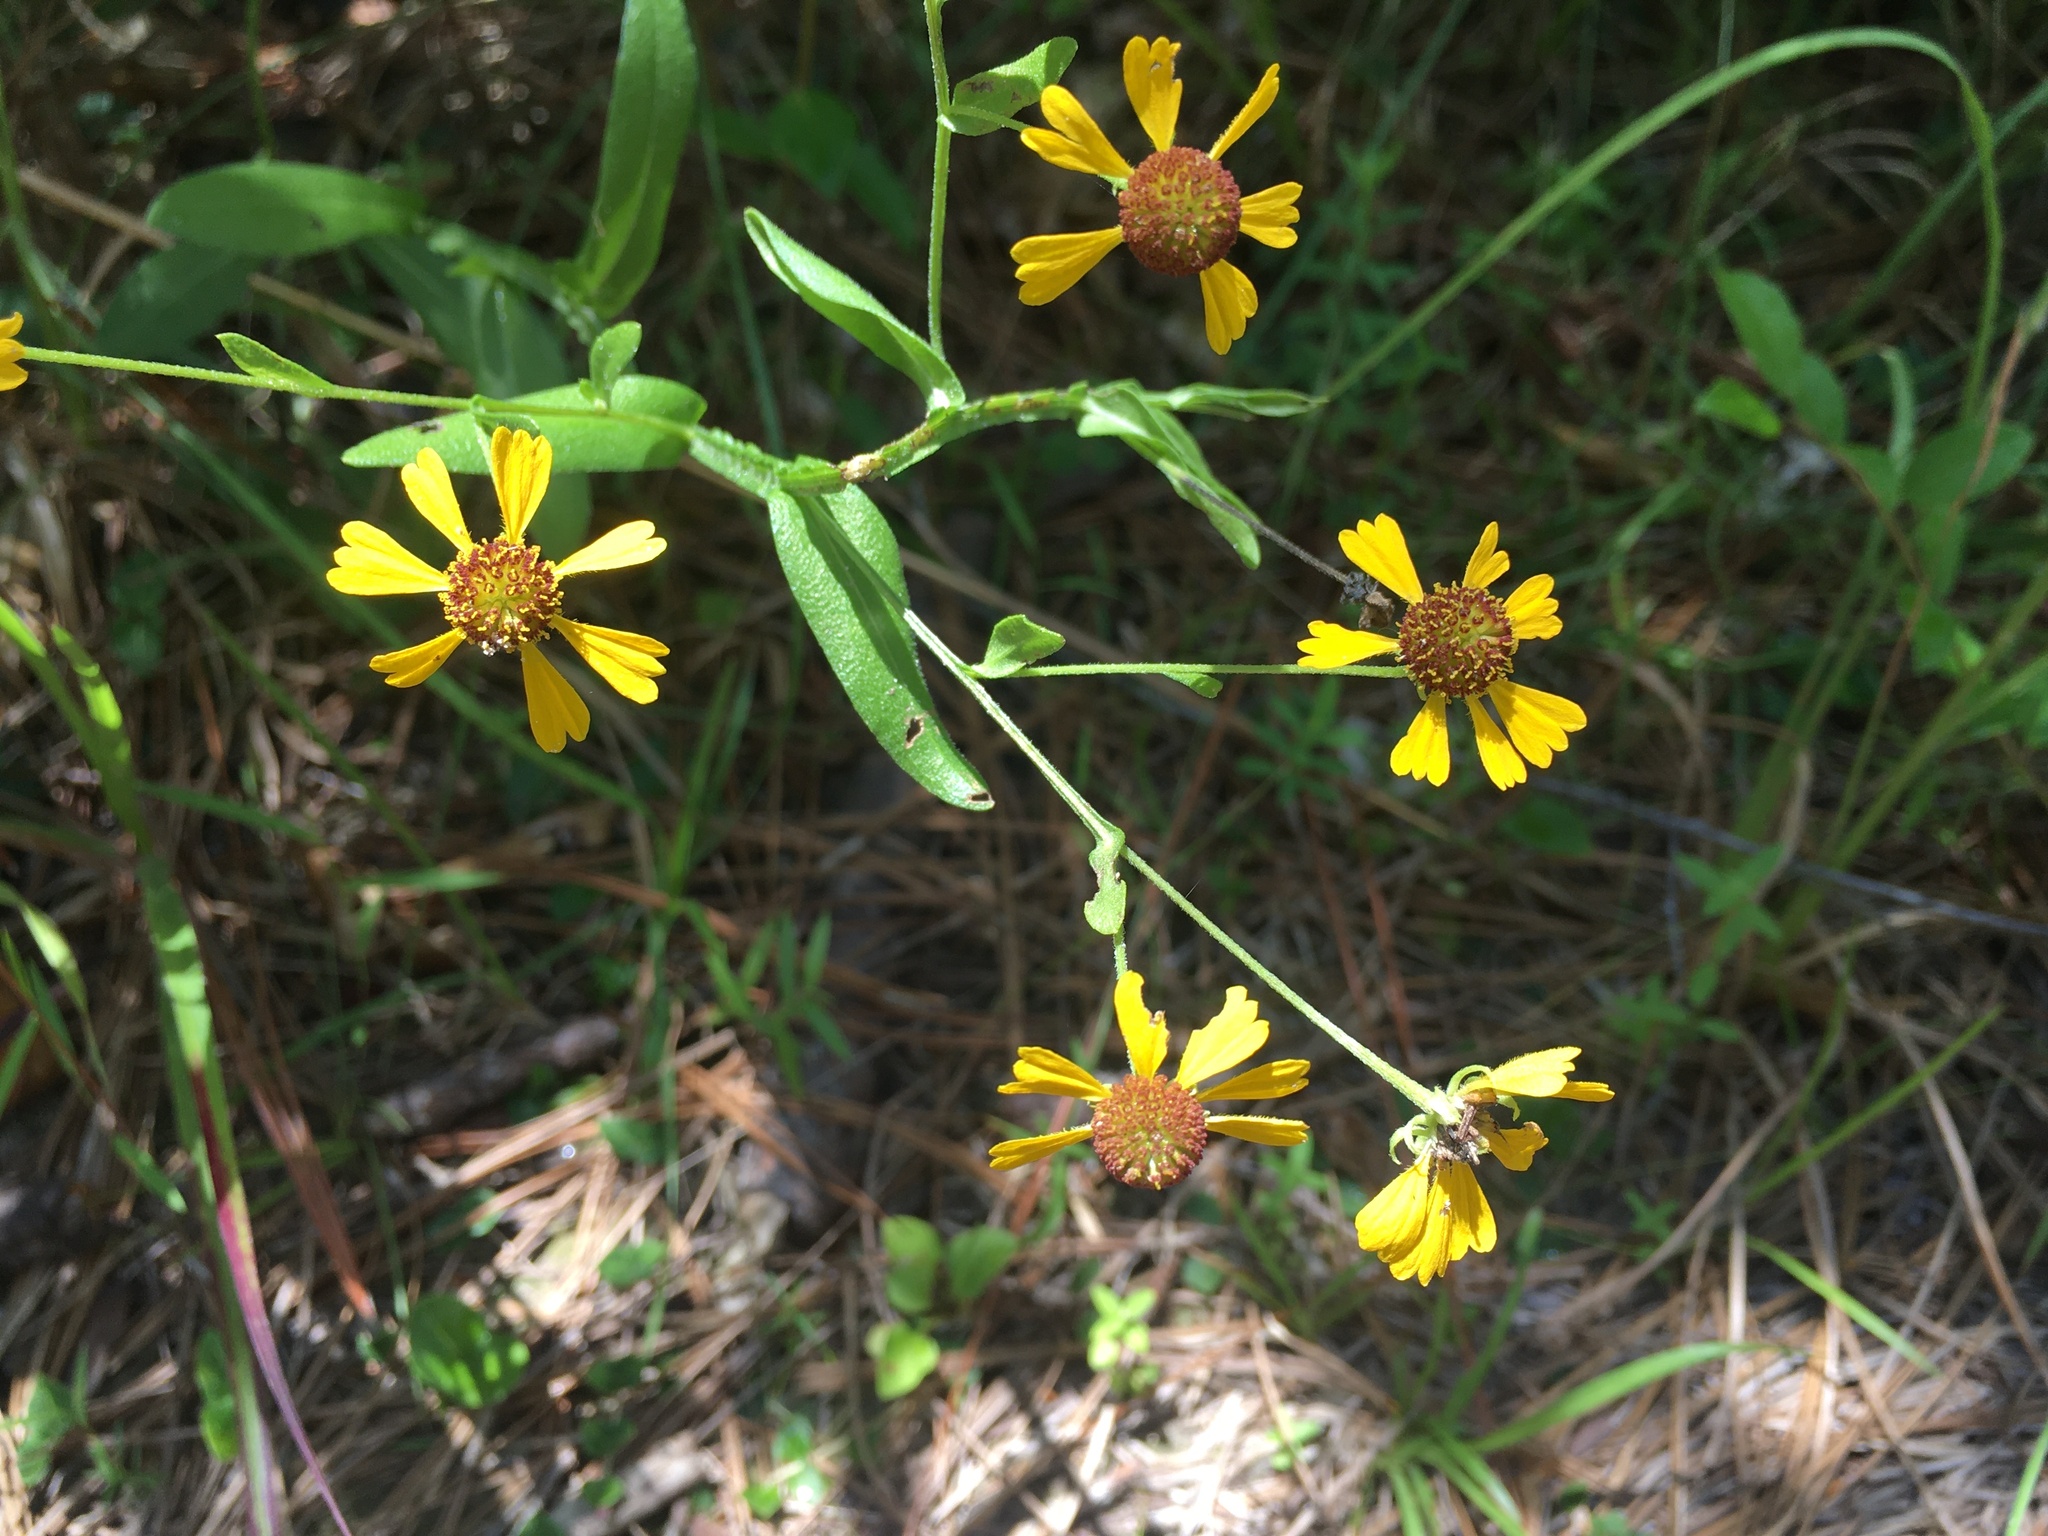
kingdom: Plantae
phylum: Tracheophyta
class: Magnoliopsida
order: Asterales
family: Asteraceae
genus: Helenium
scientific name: Helenium flexuosum
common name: Naked-flowered sneezeweed
